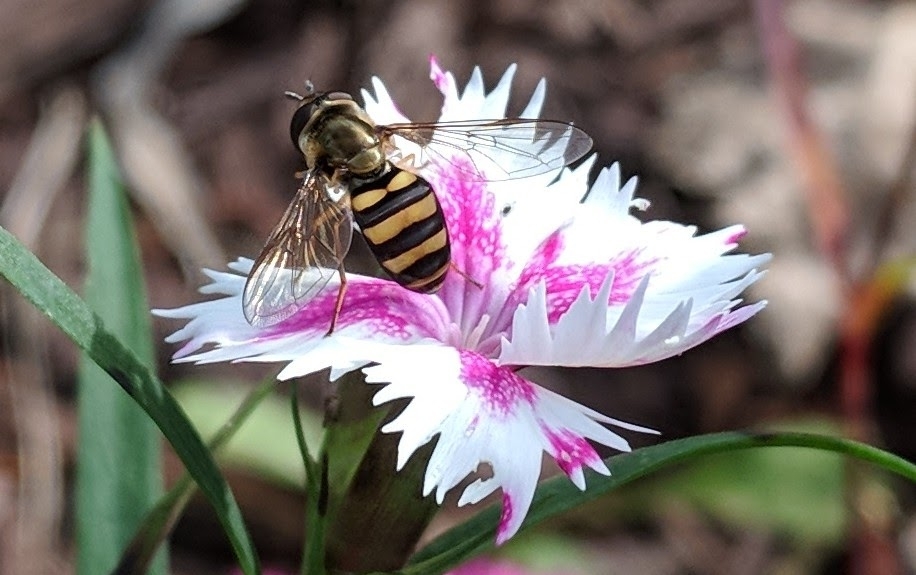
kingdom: Animalia
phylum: Arthropoda
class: Insecta
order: Diptera
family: Syrphidae
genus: Eupeodes
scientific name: Eupeodes
